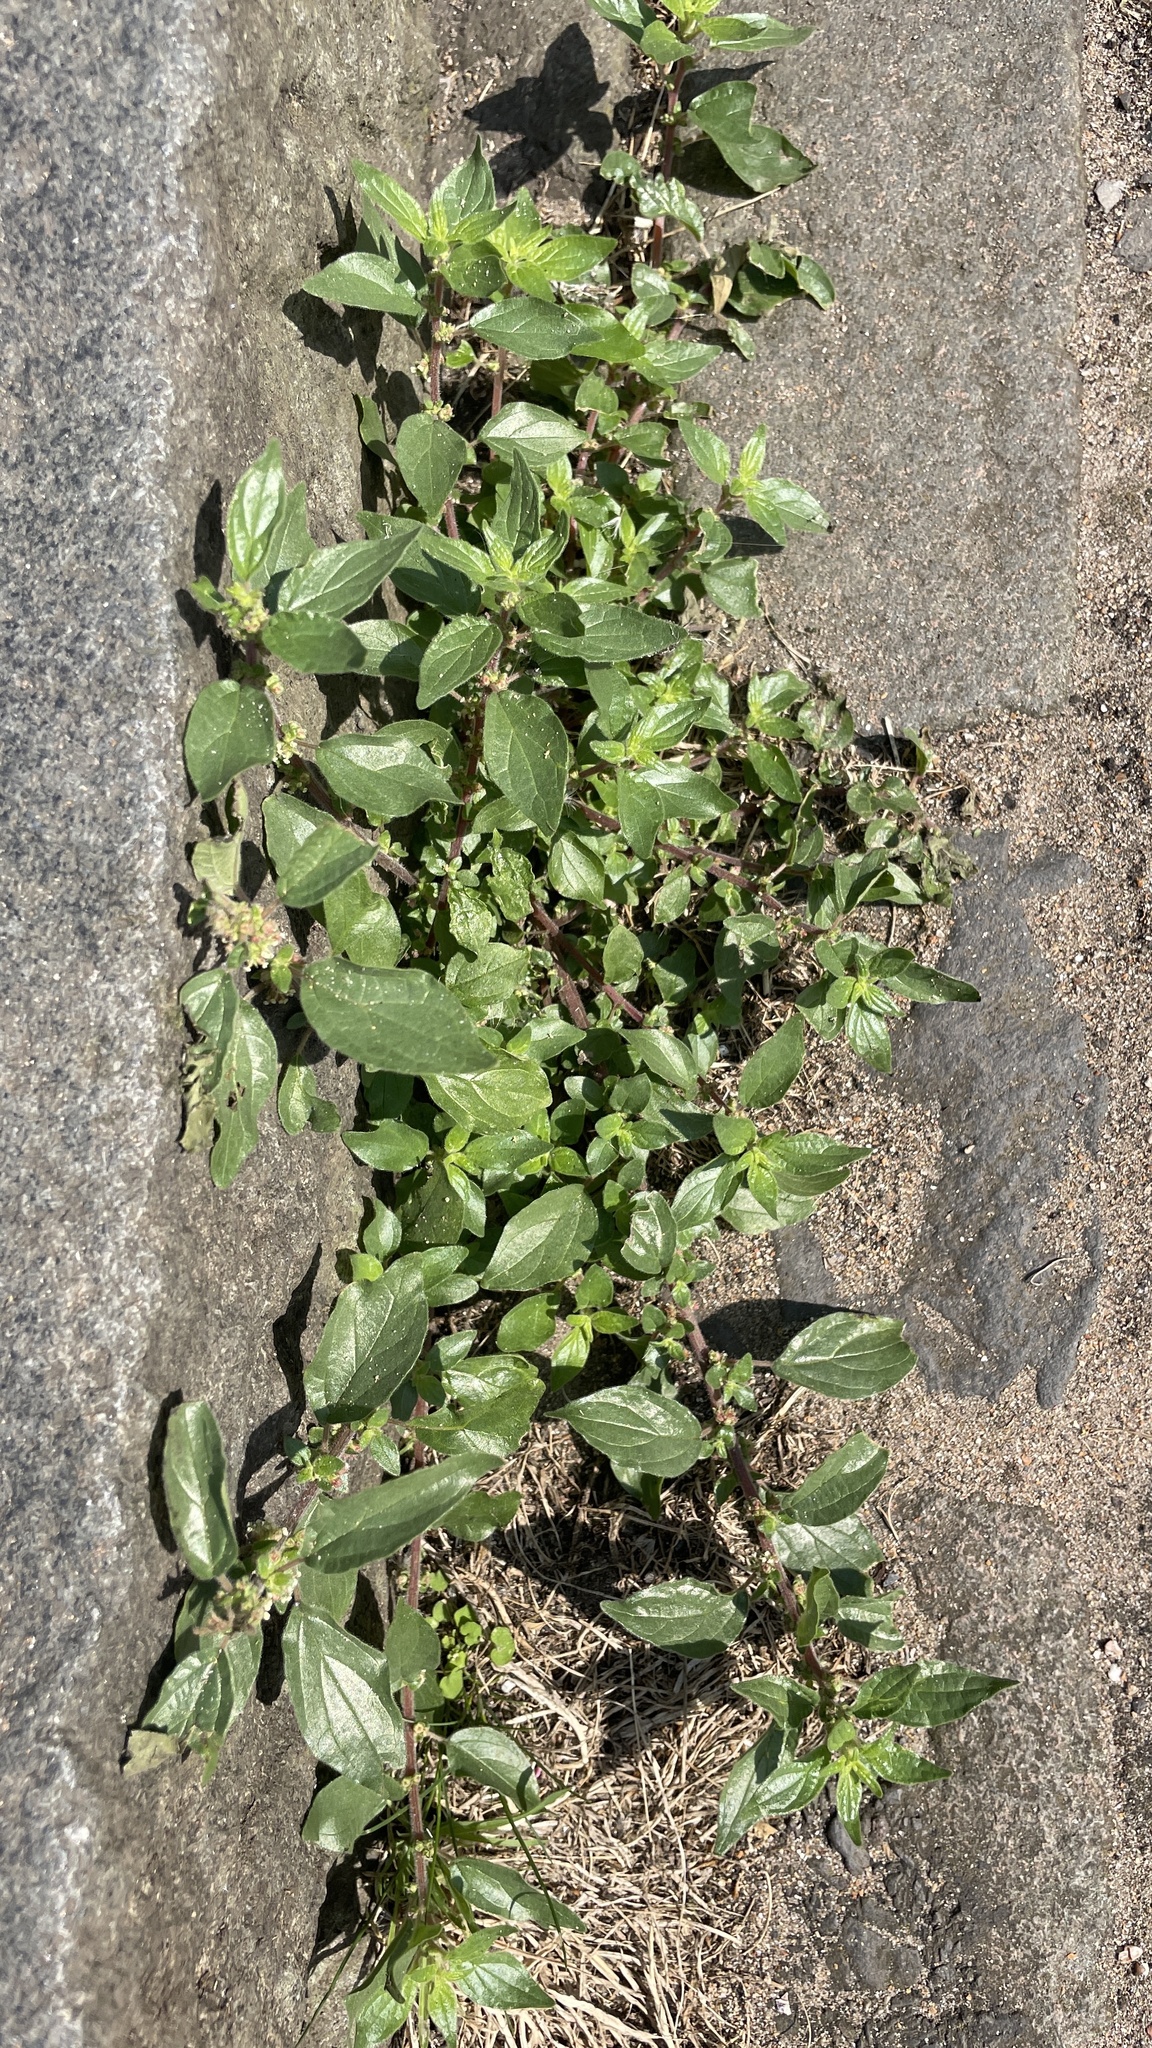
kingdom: Plantae
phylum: Tracheophyta
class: Magnoliopsida
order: Rosales
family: Urticaceae
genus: Parietaria
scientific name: Parietaria judaica
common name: Pellitory-of-the-wall
